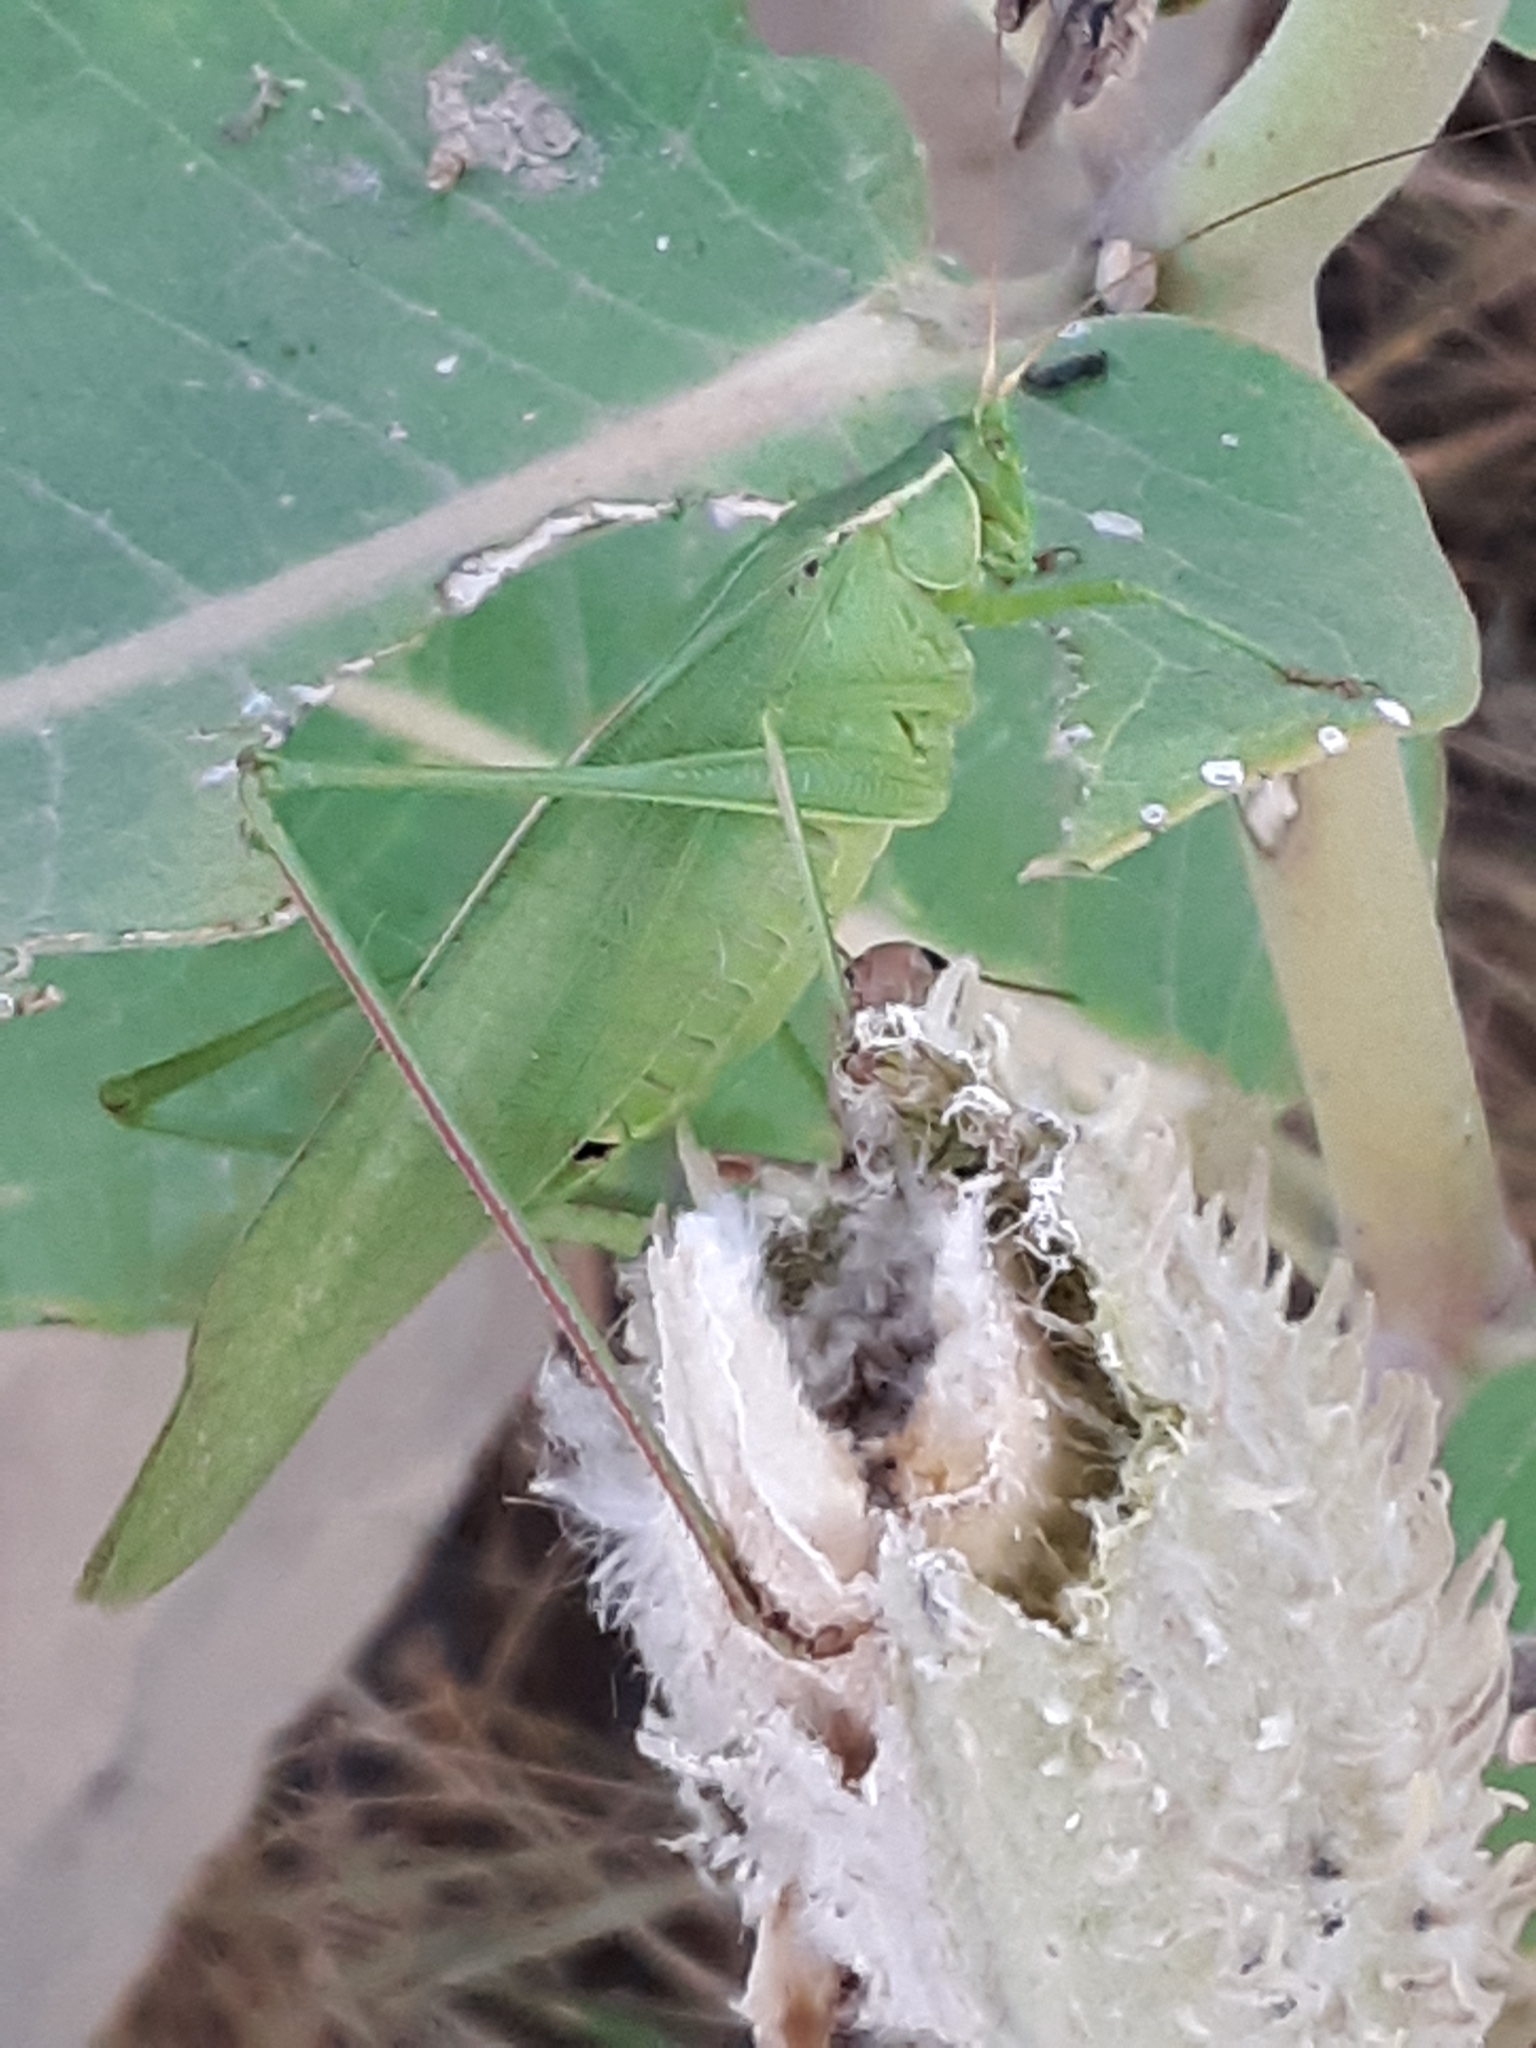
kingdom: Animalia
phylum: Arthropoda
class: Insecta
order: Orthoptera
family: Tettigoniidae
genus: Scudderia
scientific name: Scudderia
